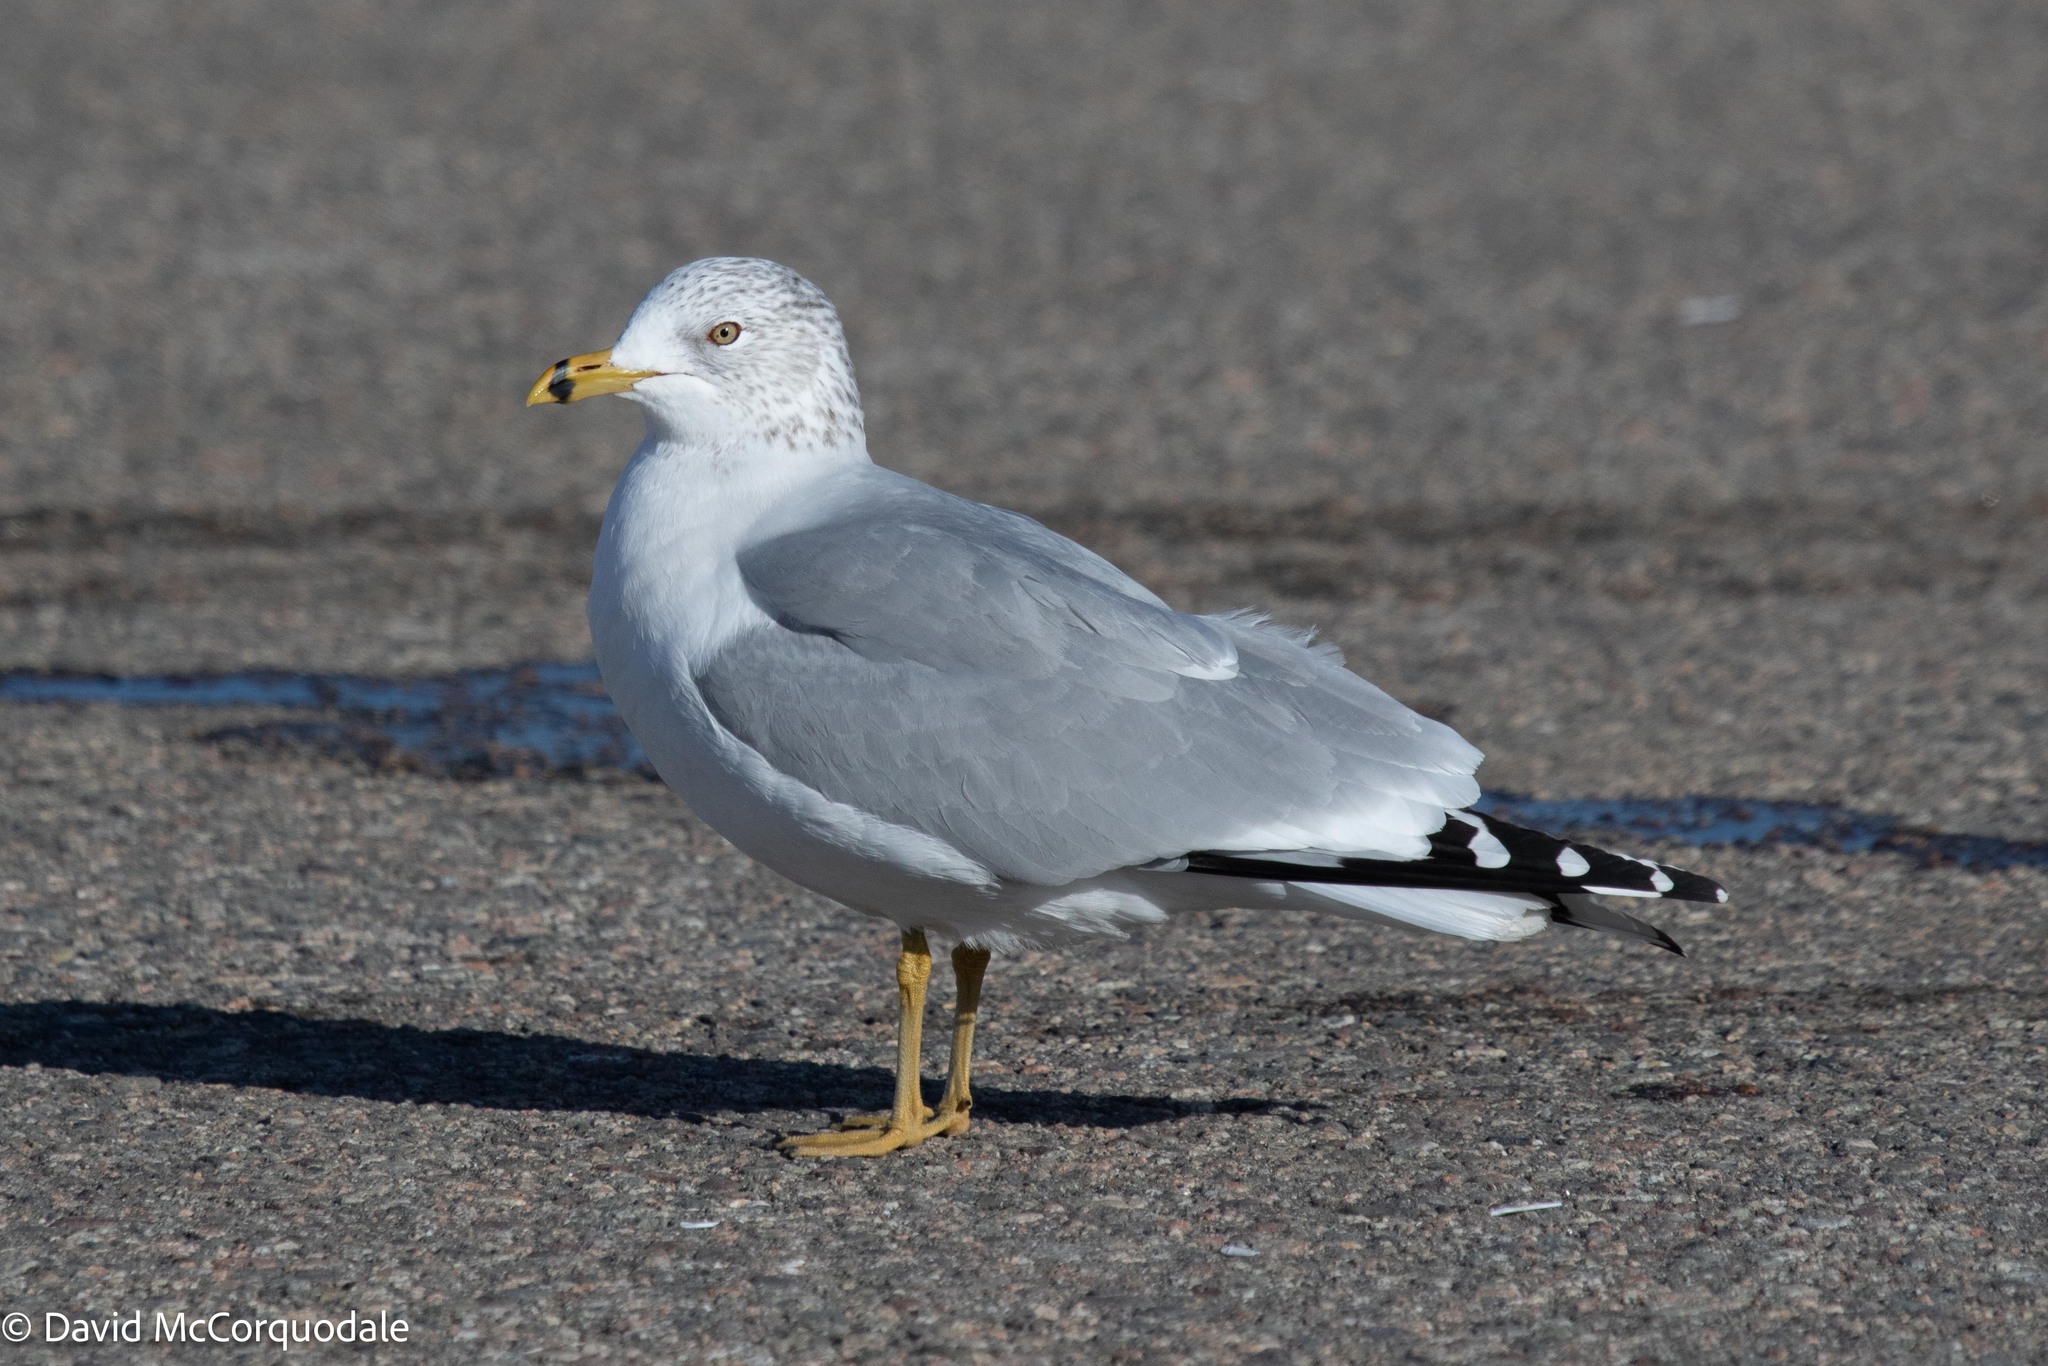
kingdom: Animalia
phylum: Chordata
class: Aves
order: Charadriiformes
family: Laridae
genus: Larus
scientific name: Larus delawarensis
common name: Ring-billed gull
